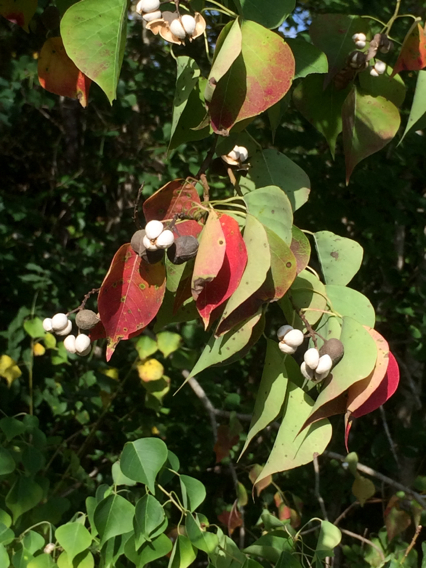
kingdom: Plantae
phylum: Tracheophyta
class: Magnoliopsida
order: Malpighiales
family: Euphorbiaceae
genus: Triadica
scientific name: Triadica sebifera
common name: Chinese tallow
